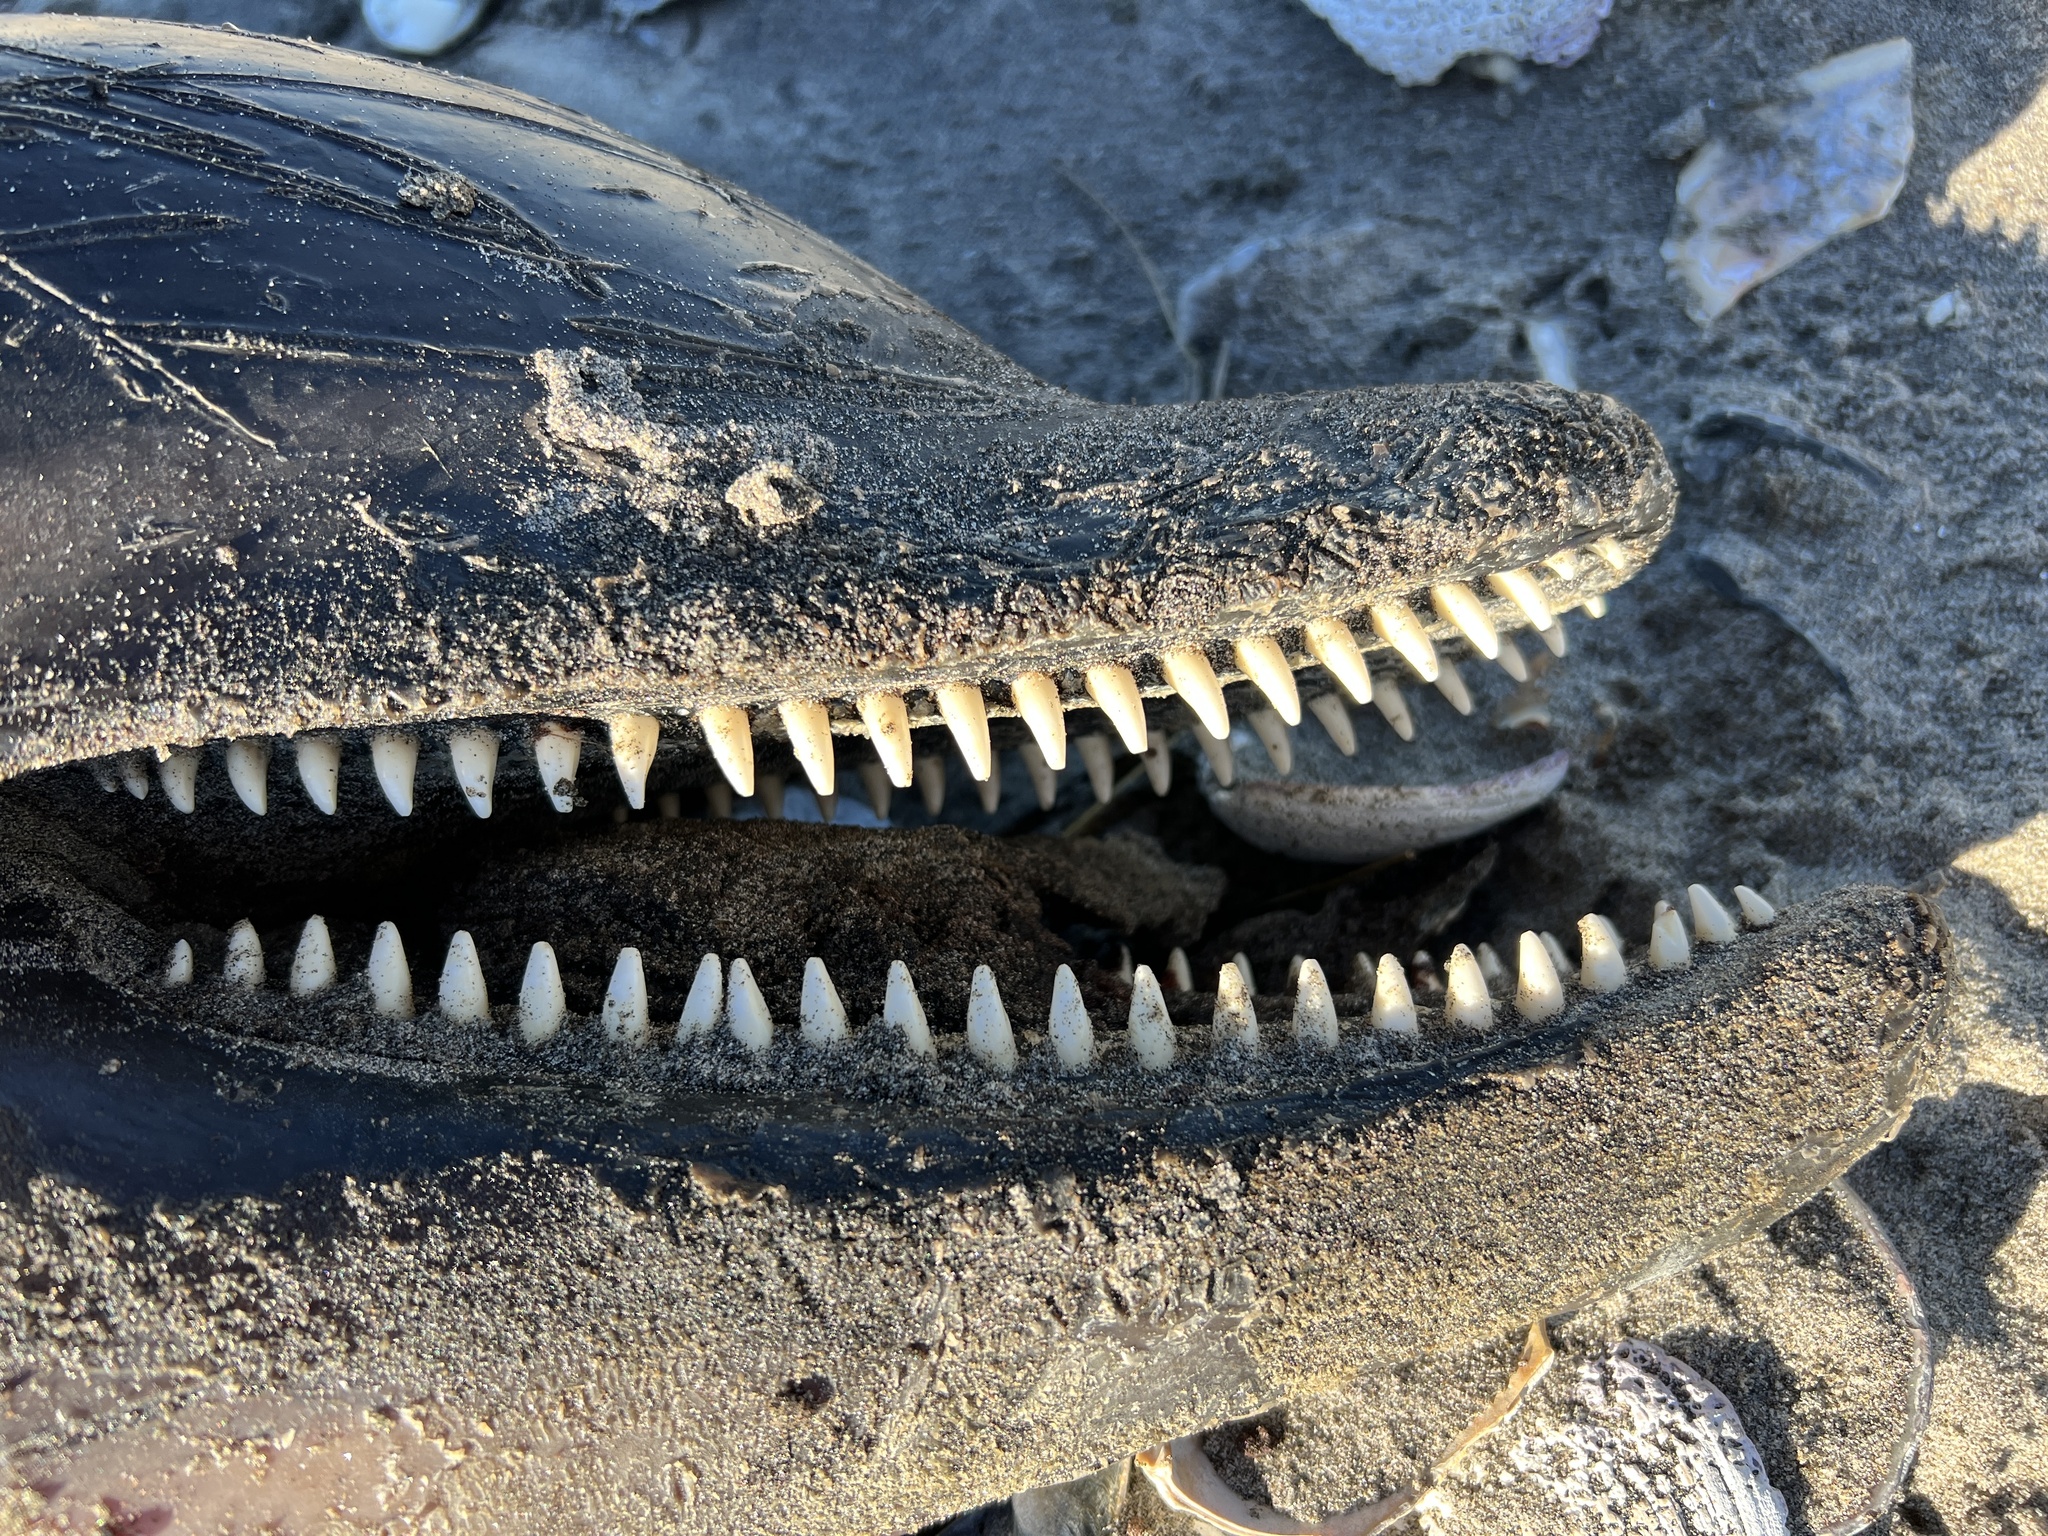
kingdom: Animalia
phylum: Chordata
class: Mammalia
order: Cetacea
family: Delphinidae
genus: Tursiops
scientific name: Tursiops truncatus
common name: Bottlenose dolphin
